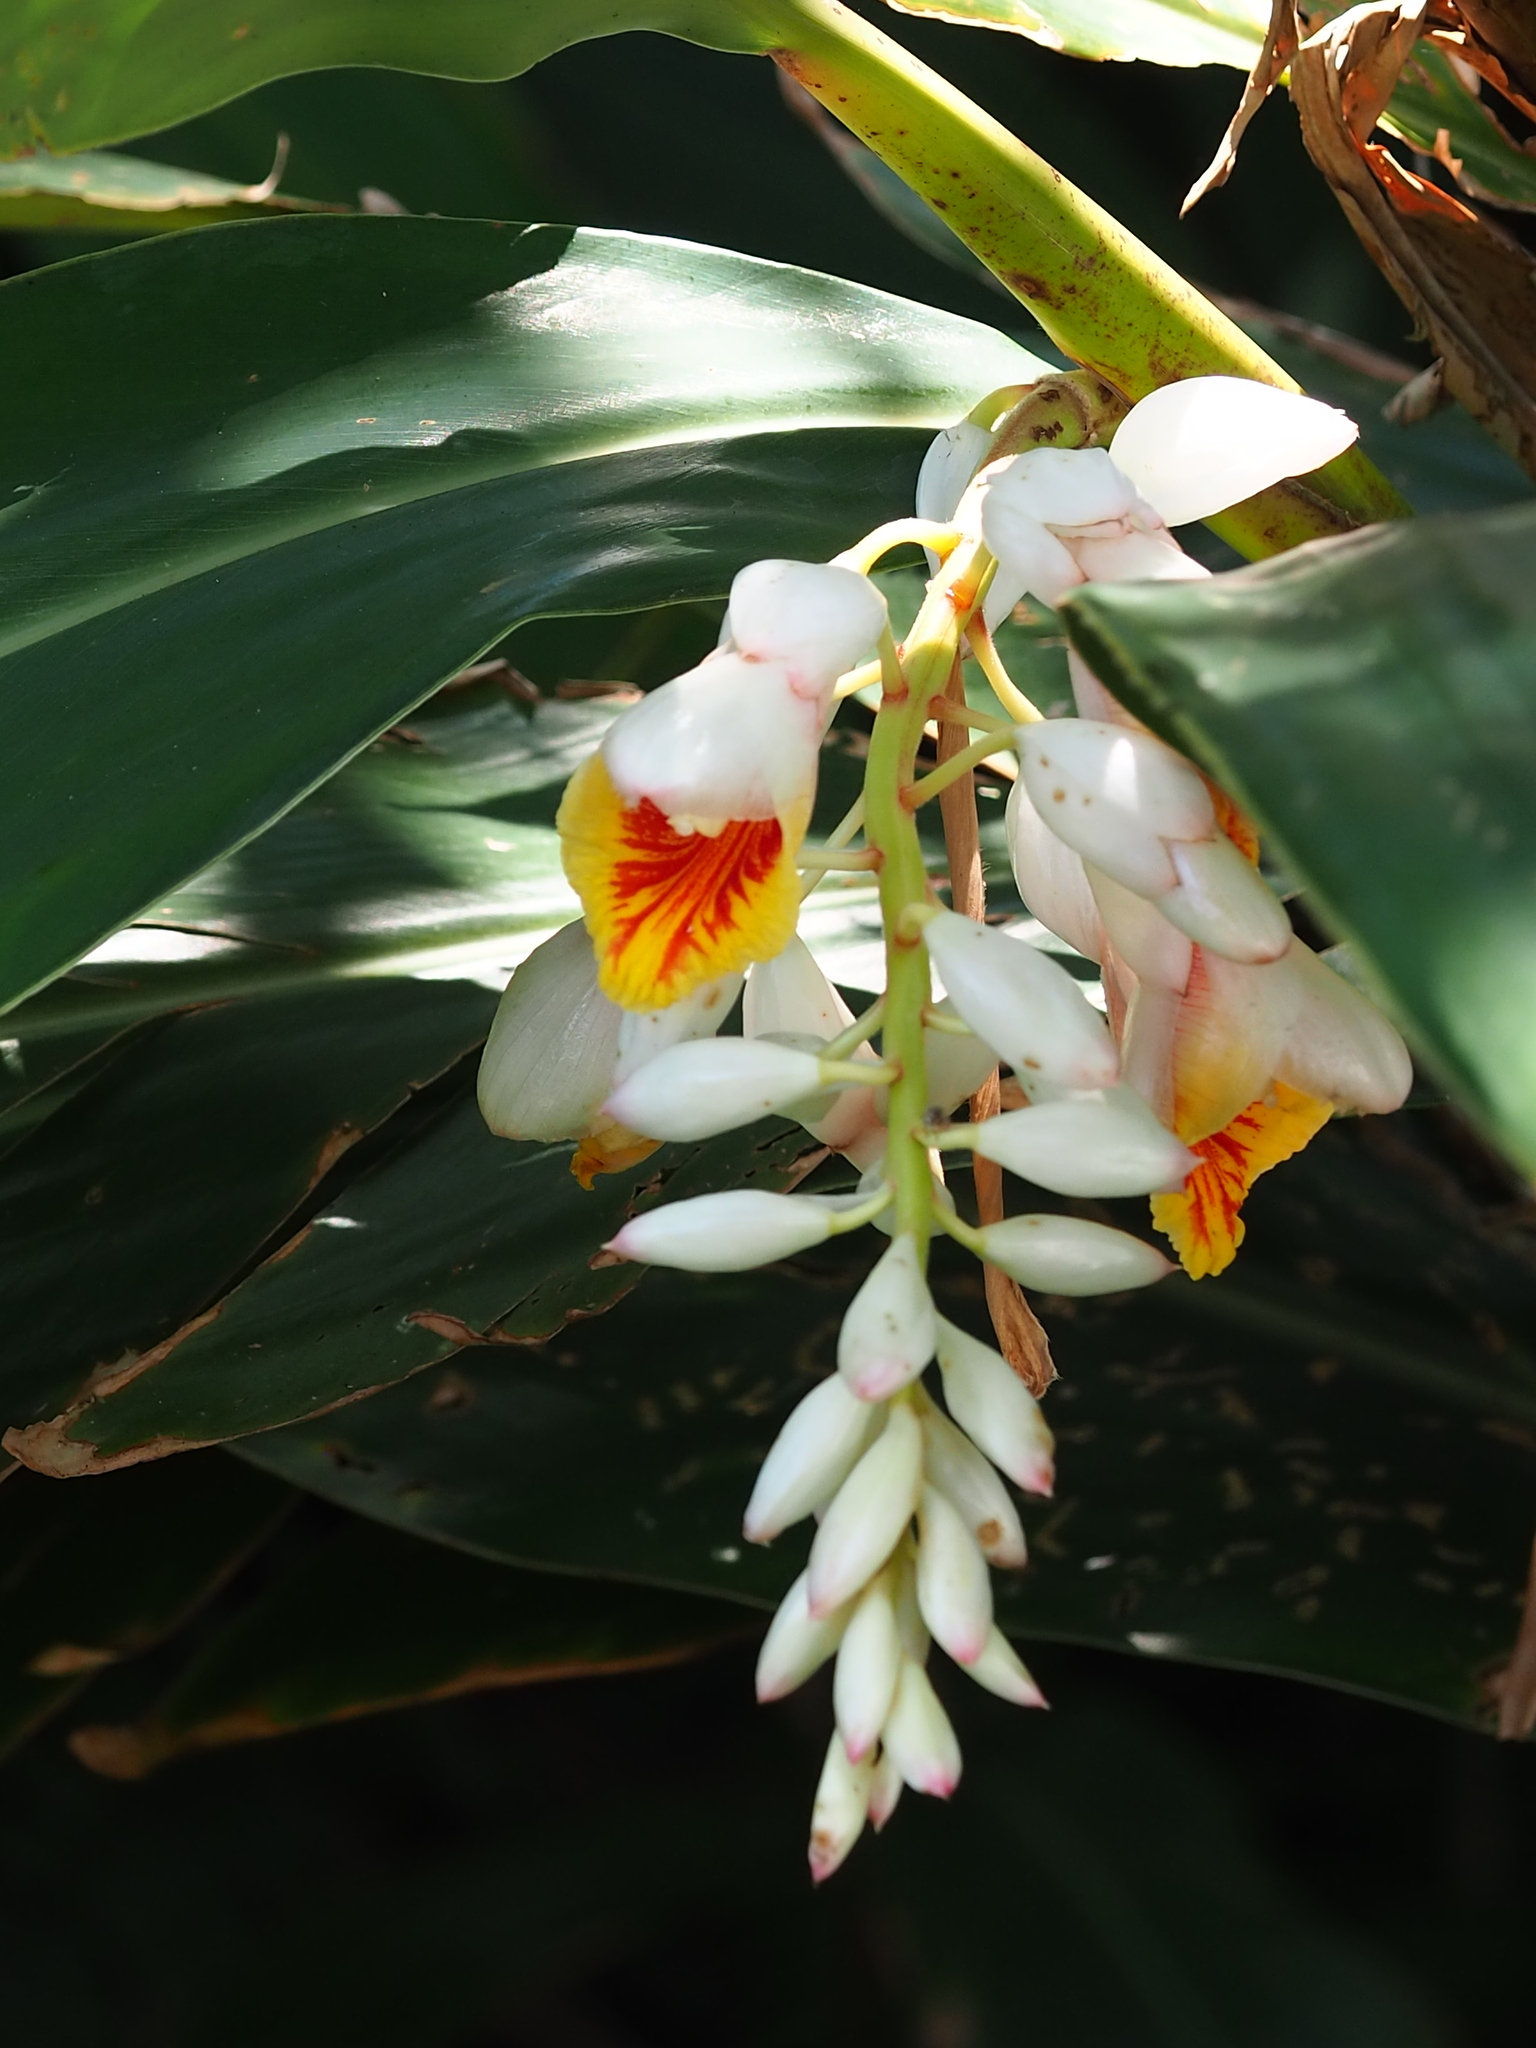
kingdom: Plantae
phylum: Tracheophyta
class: Liliopsida
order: Zingiberales
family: Zingiberaceae
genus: Alpinia
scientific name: Alpinia zerumbet
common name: Shellplant
